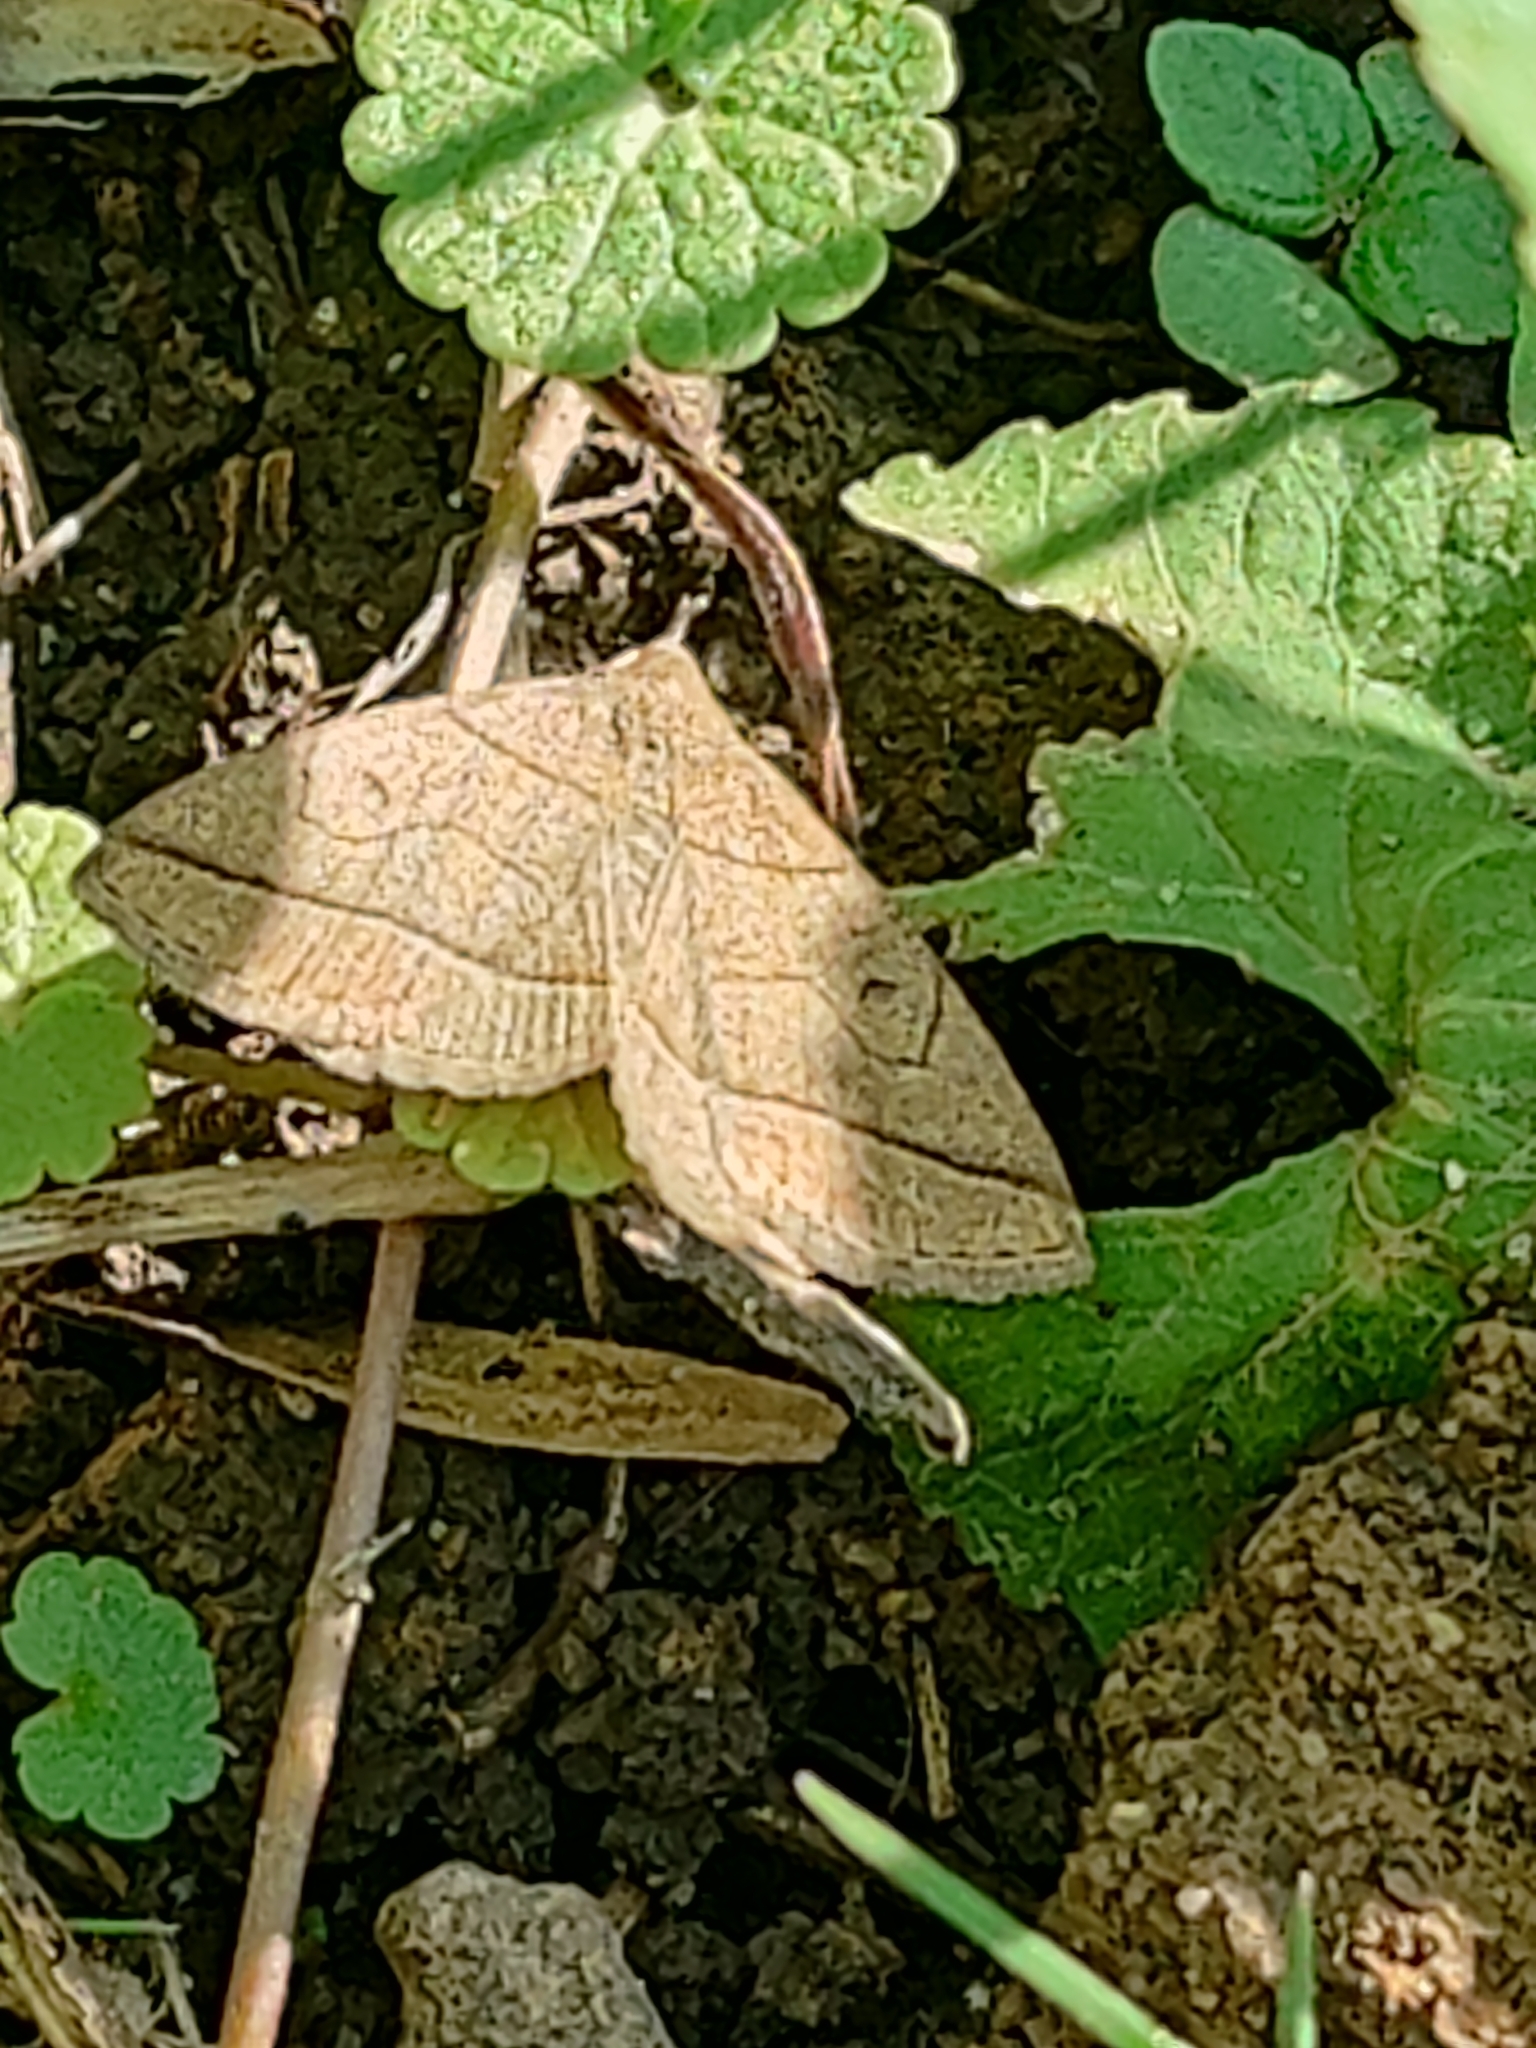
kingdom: Animalia
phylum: Arthropoda
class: Insecta
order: Lepidoptera
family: Erebidae
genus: Zanclognatha
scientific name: Zanclognatha cruralis
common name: Early fan-foot
